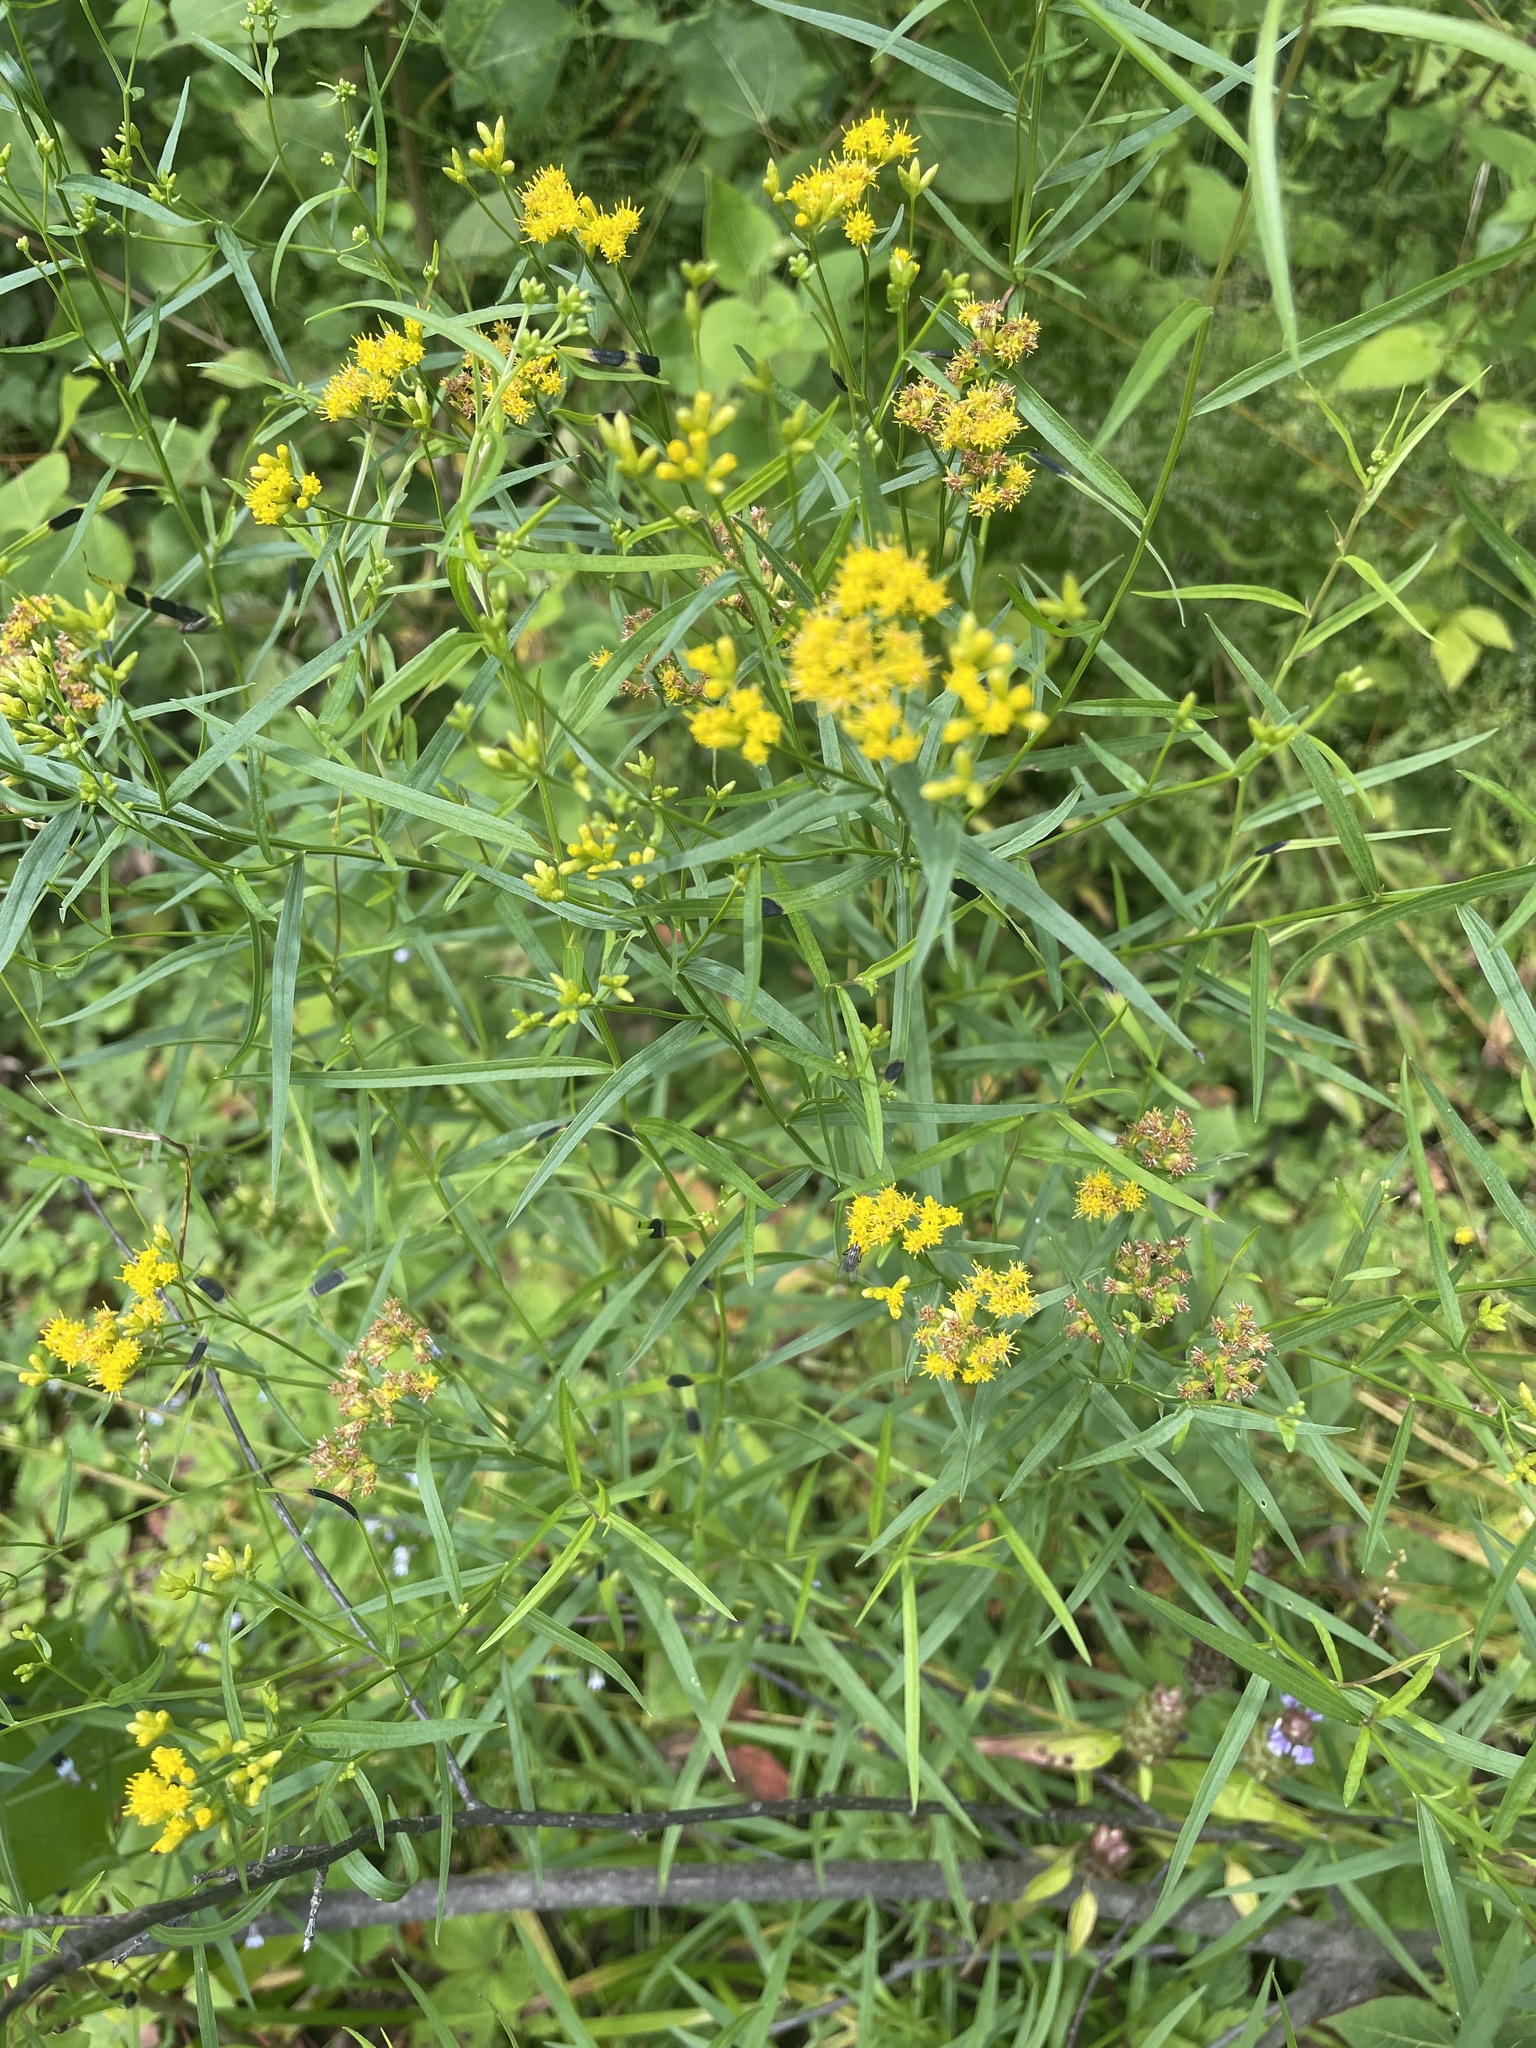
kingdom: Plantae
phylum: Tracheophyta
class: Magnoliopsida
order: Asterales
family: Asteraceae
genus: Euthamia
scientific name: Euthamia graminifolia
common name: Common goldentop
